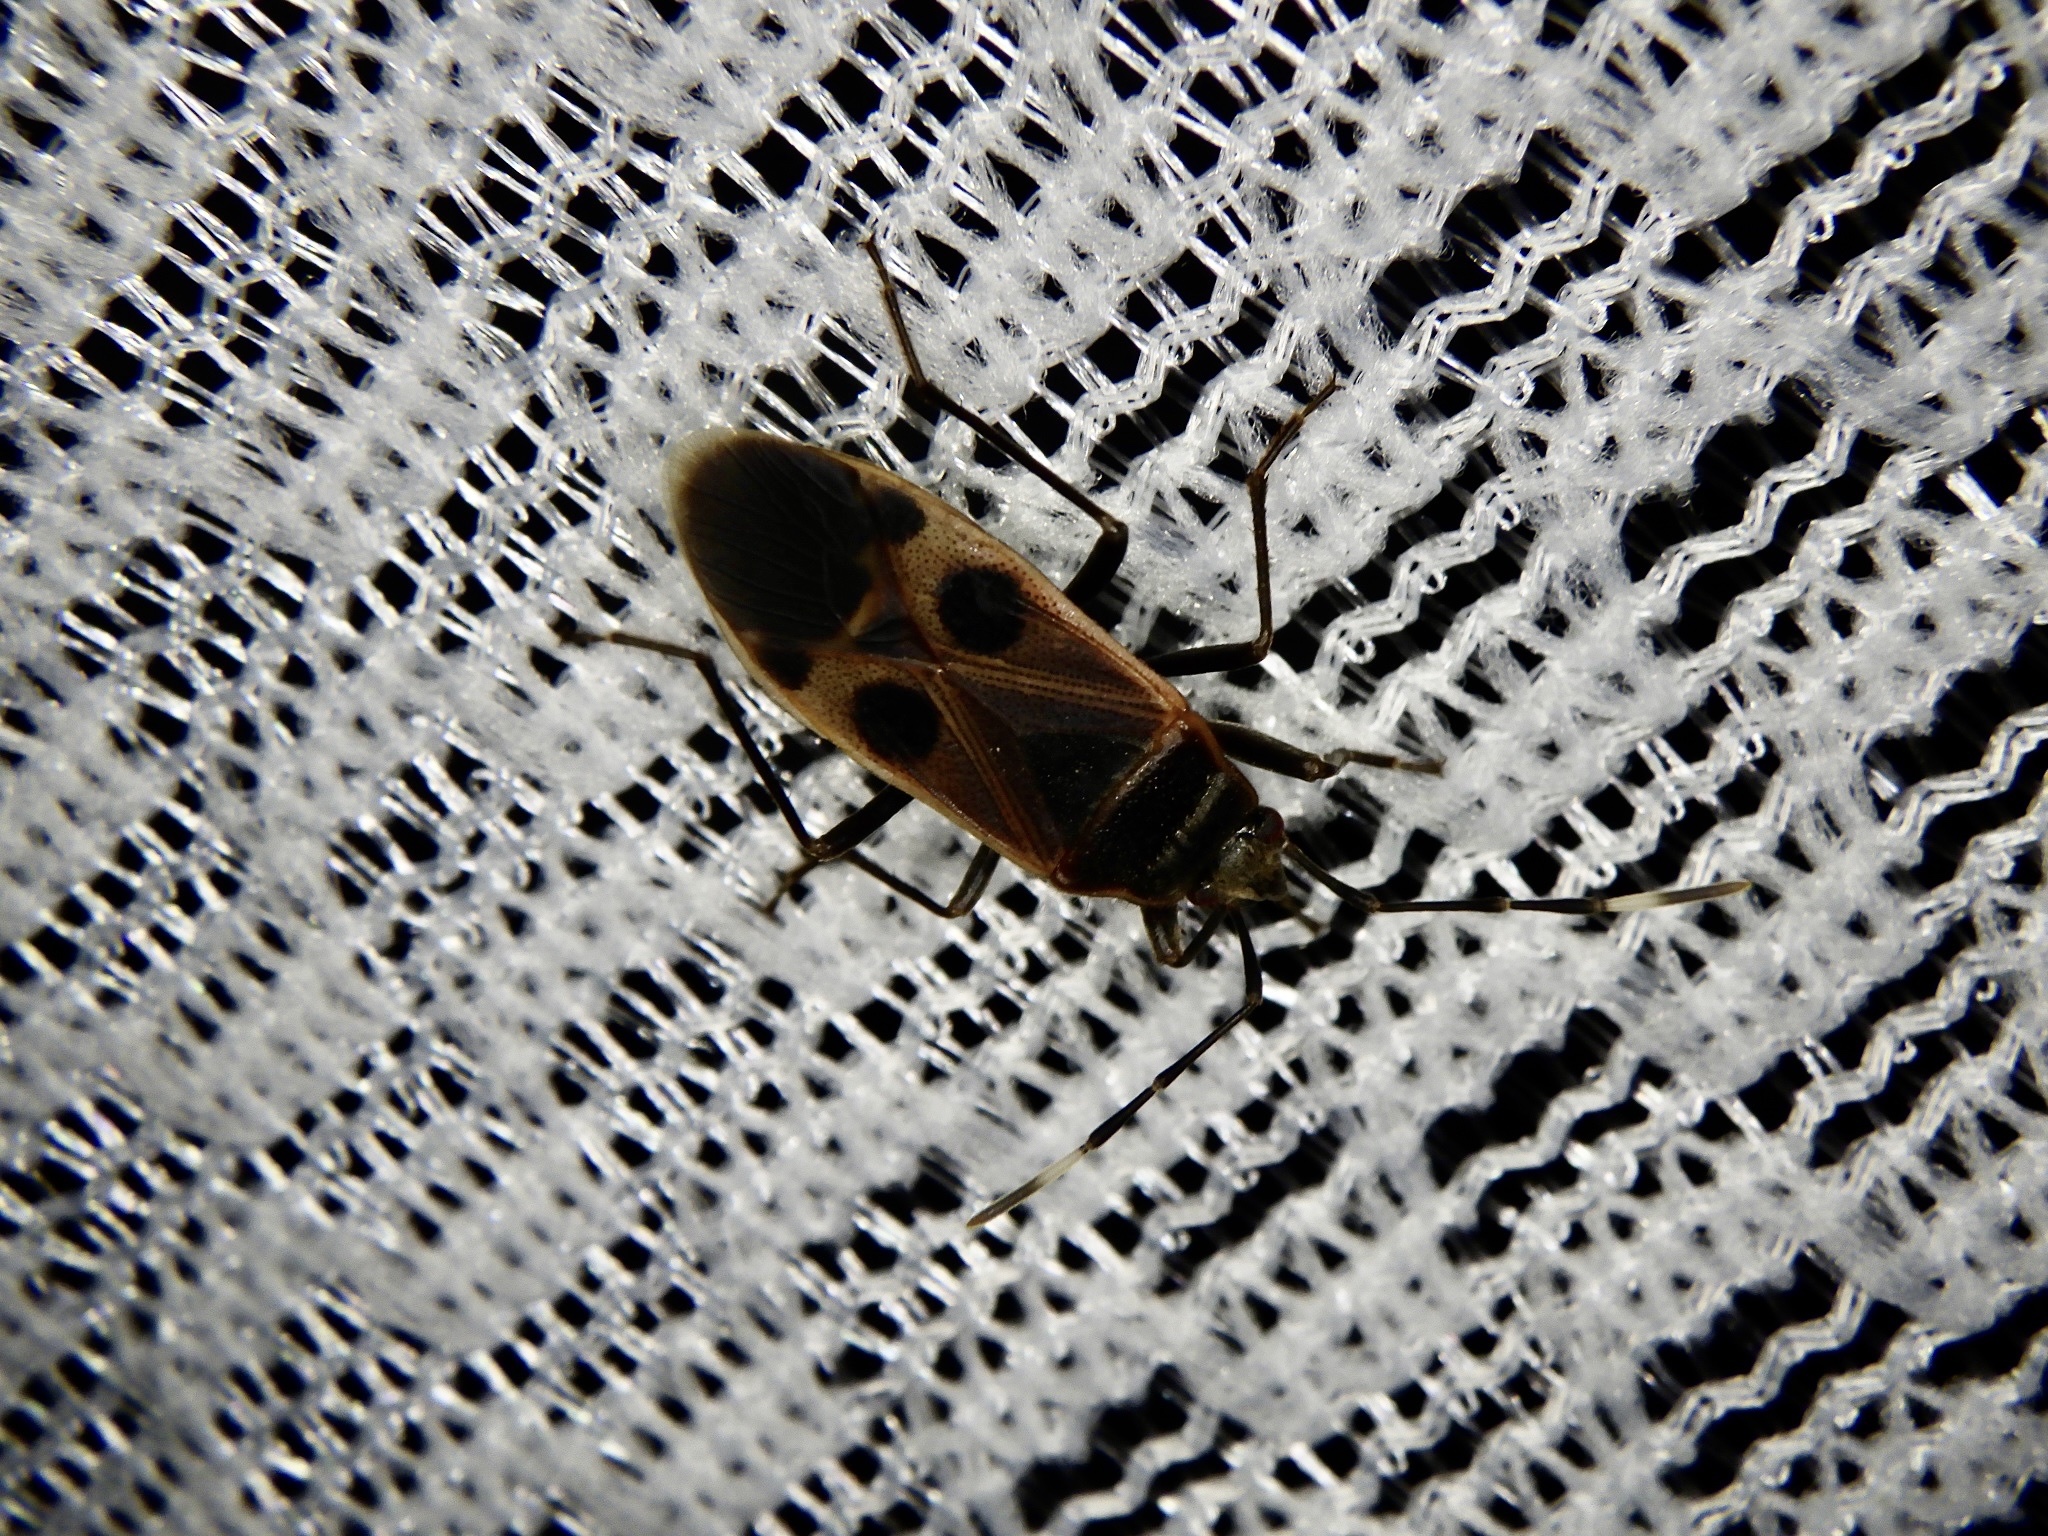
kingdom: Animalia
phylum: Arthropoda
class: Insecta
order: Hemiptera
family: Largidae
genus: Physopelta
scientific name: Physopelta parviceps
